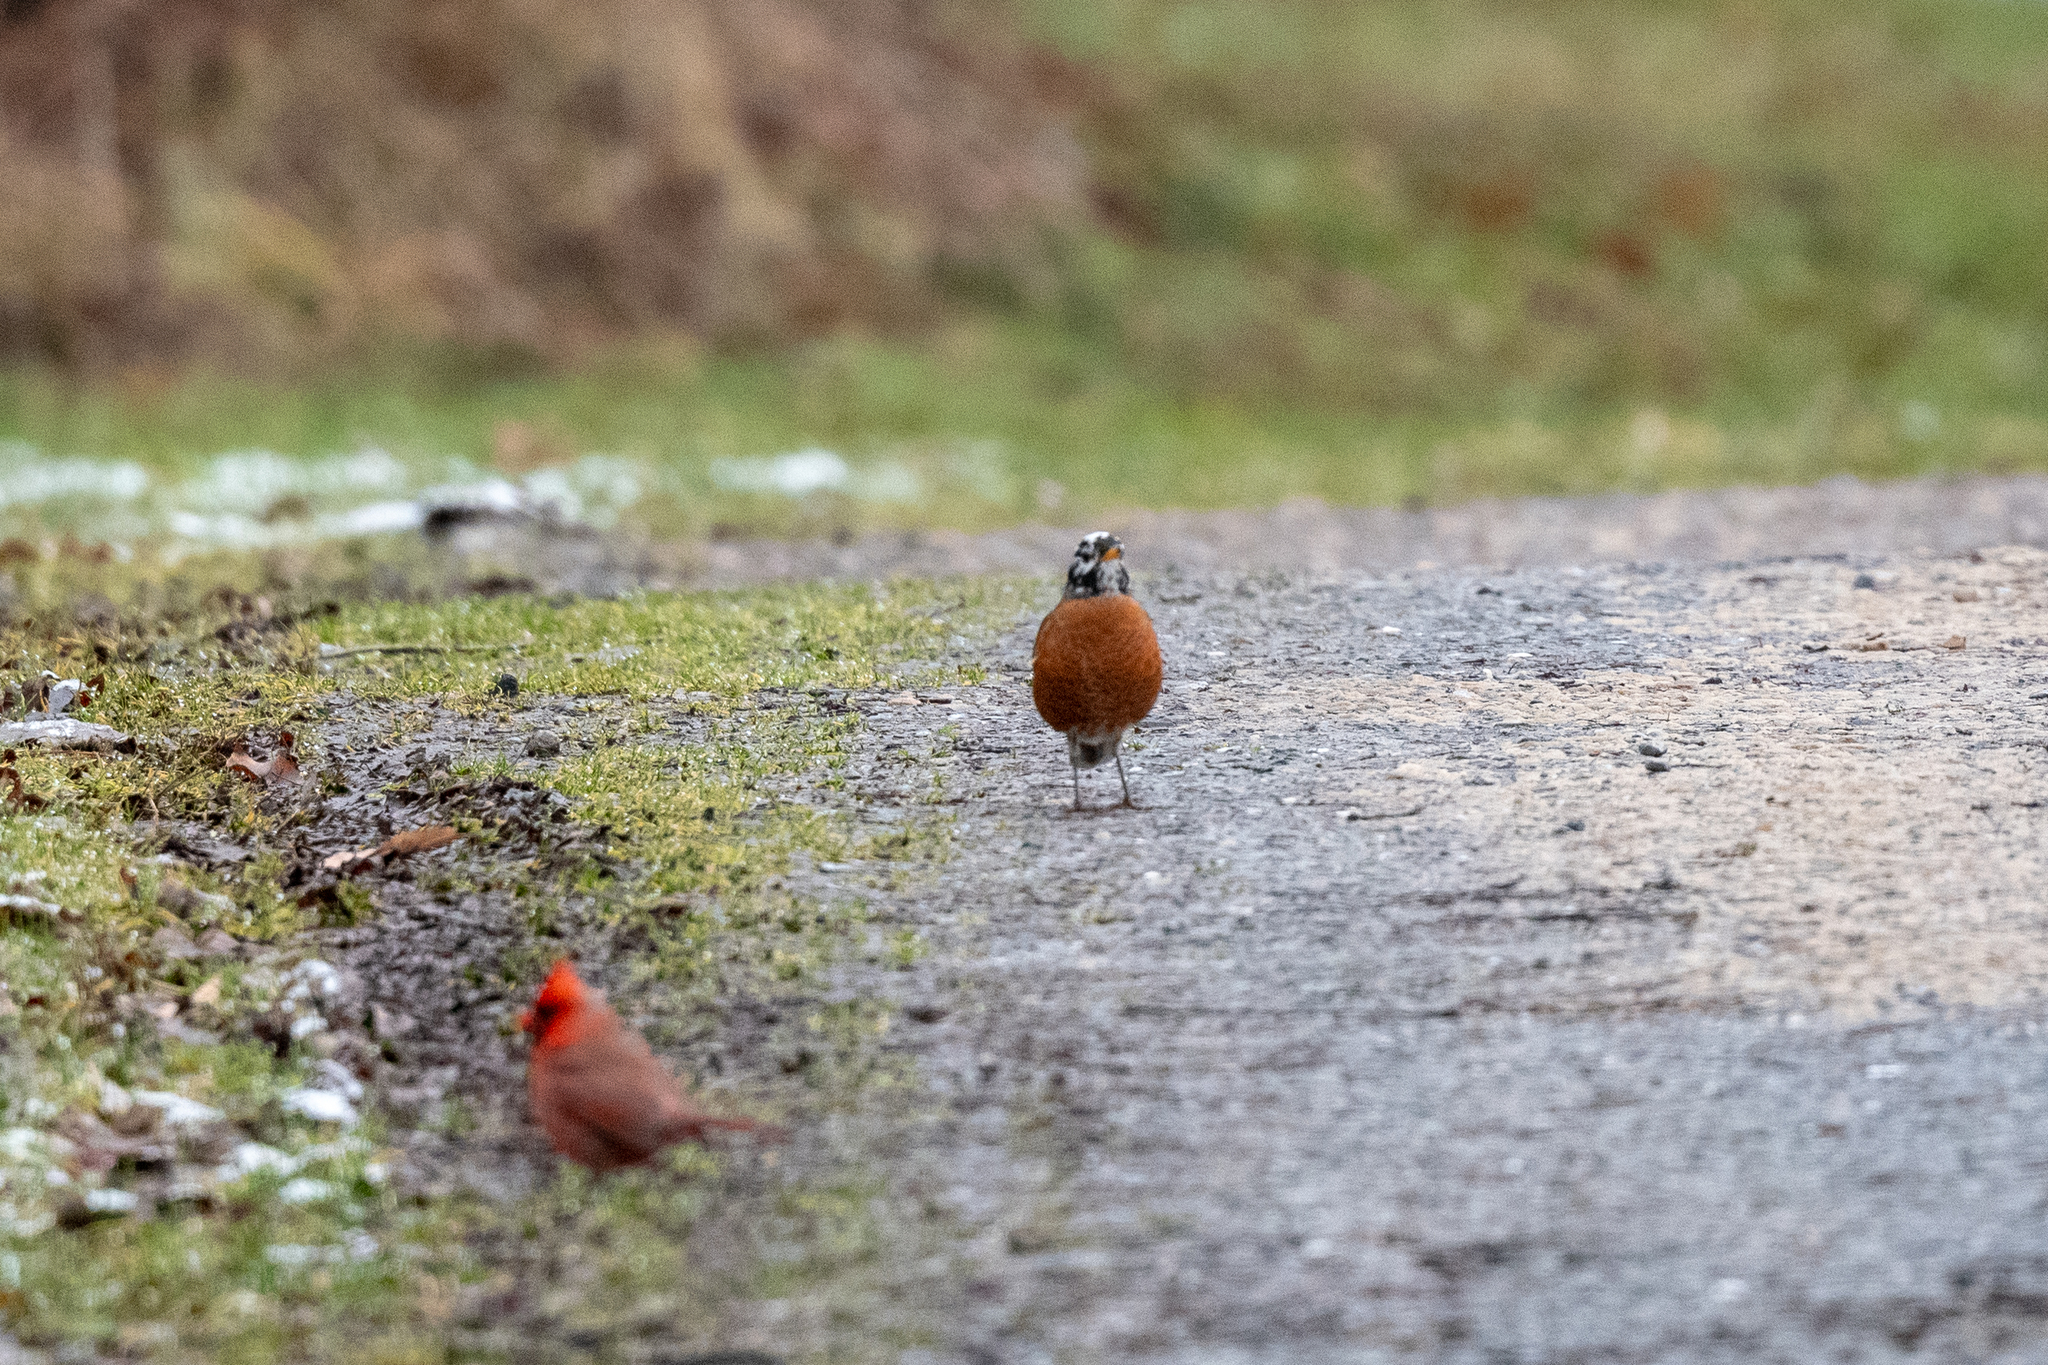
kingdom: Animalia
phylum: Chordata
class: Aves
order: Passeriformes
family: Cardinalidae
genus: Cardinalis
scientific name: Cardinalis cardinalis
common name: Northern cardinal
